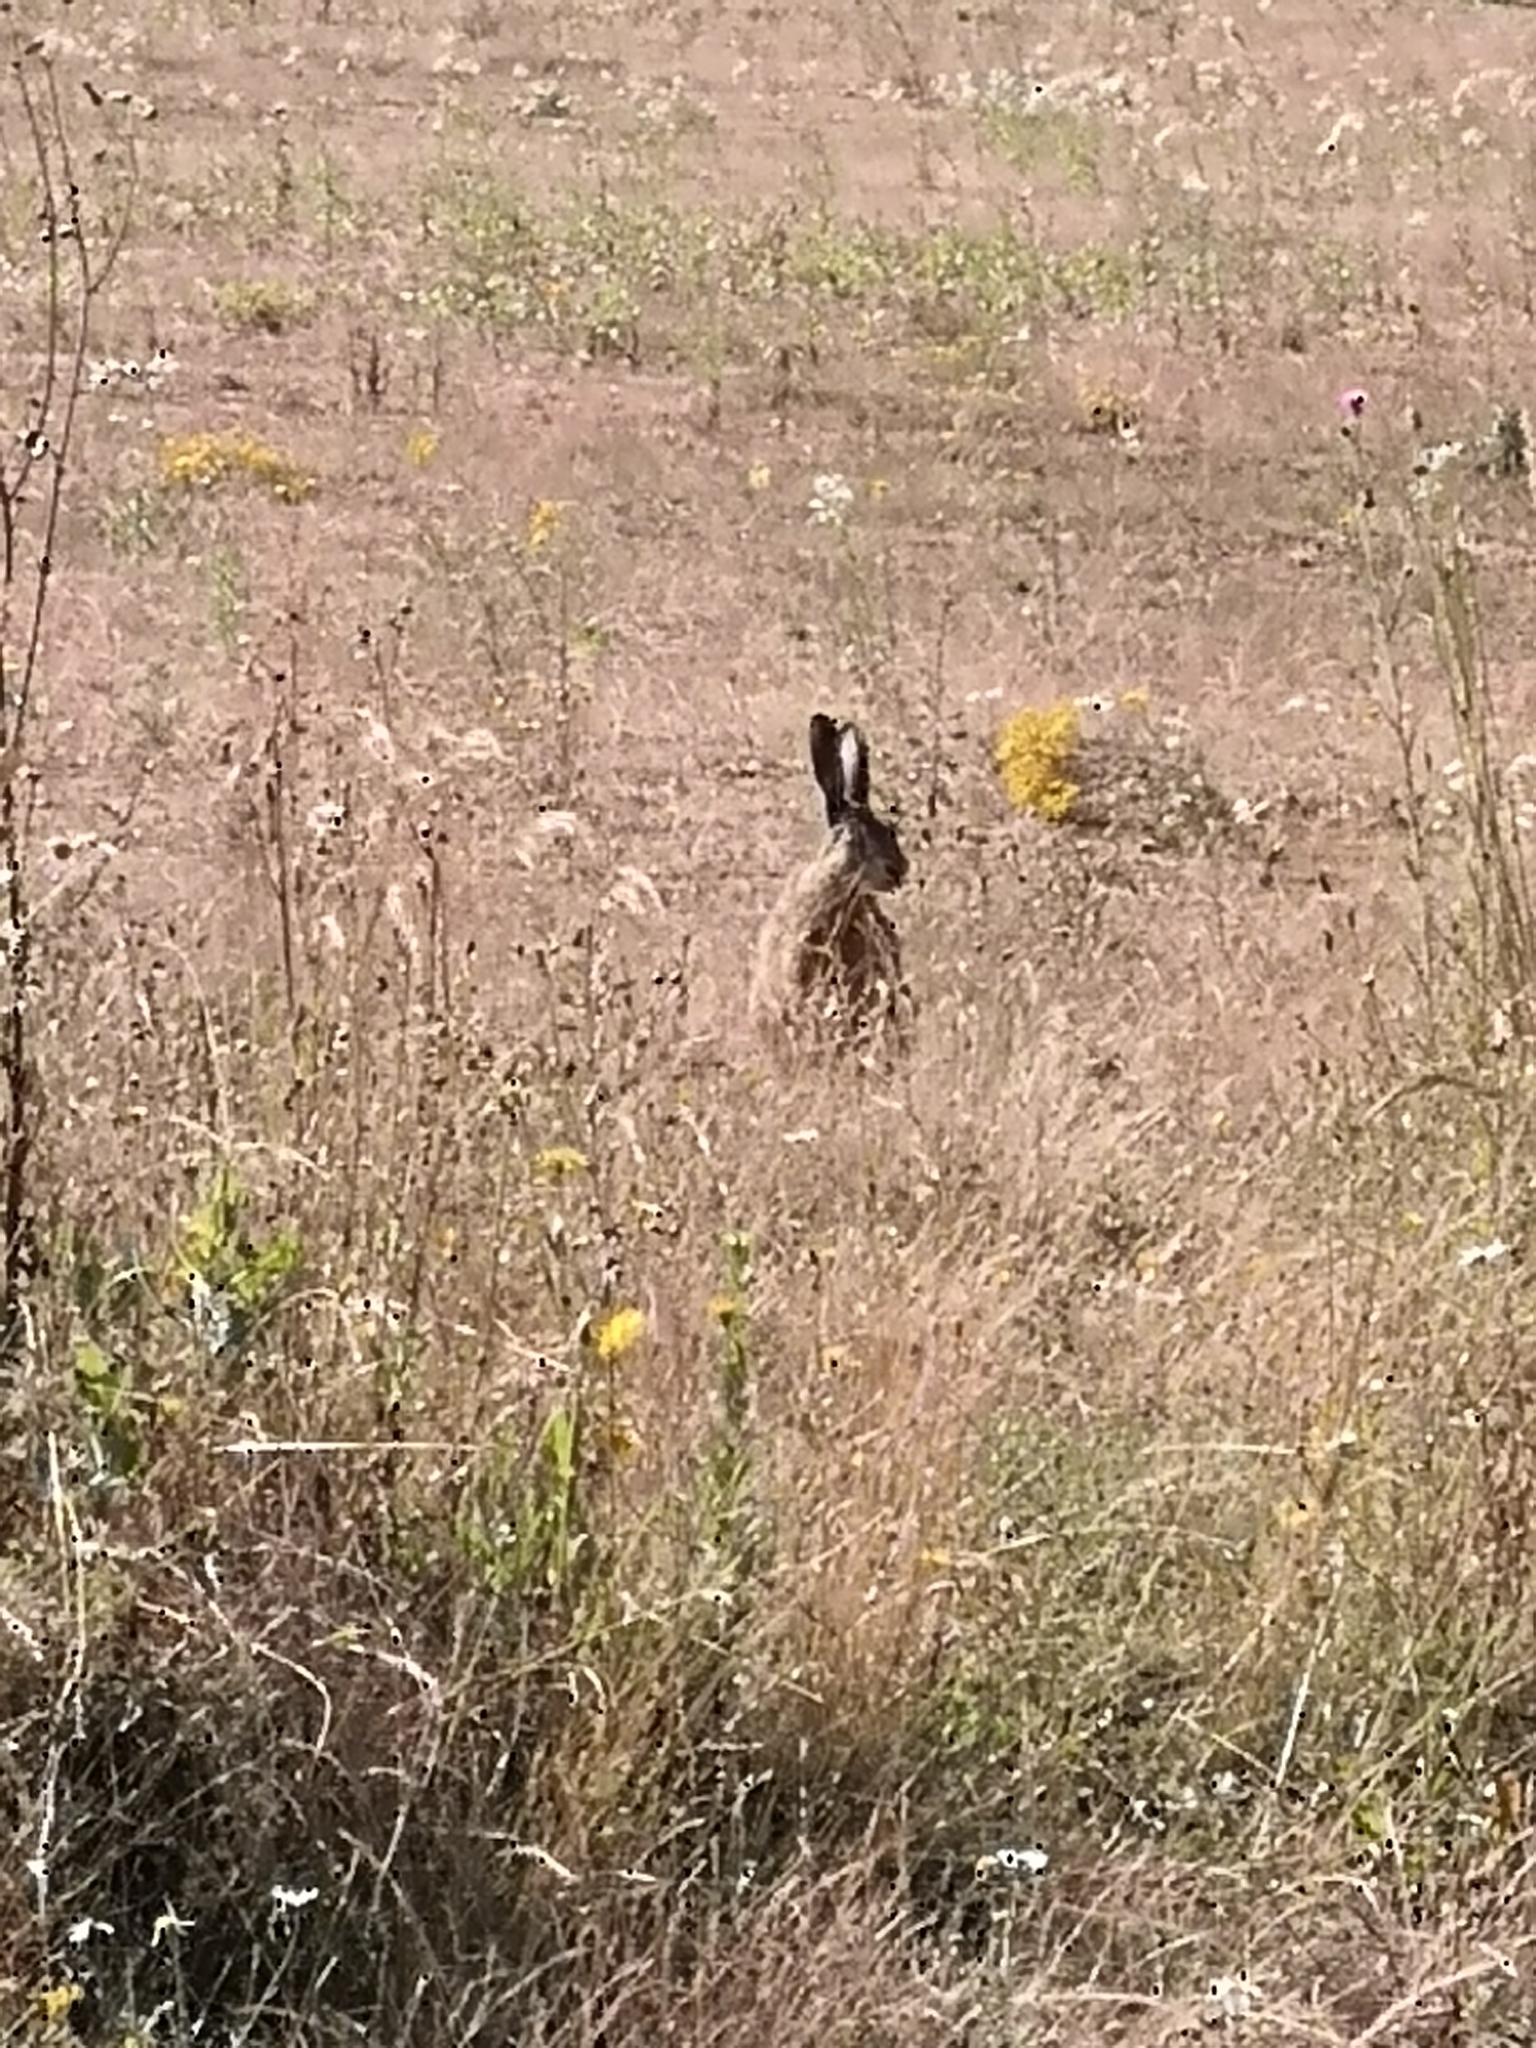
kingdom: Animalia
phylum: Chordata
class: Mammalia
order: Lagomorpha
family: Leporidae
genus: Lepus
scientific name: Lepus europaeus
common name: European hare
